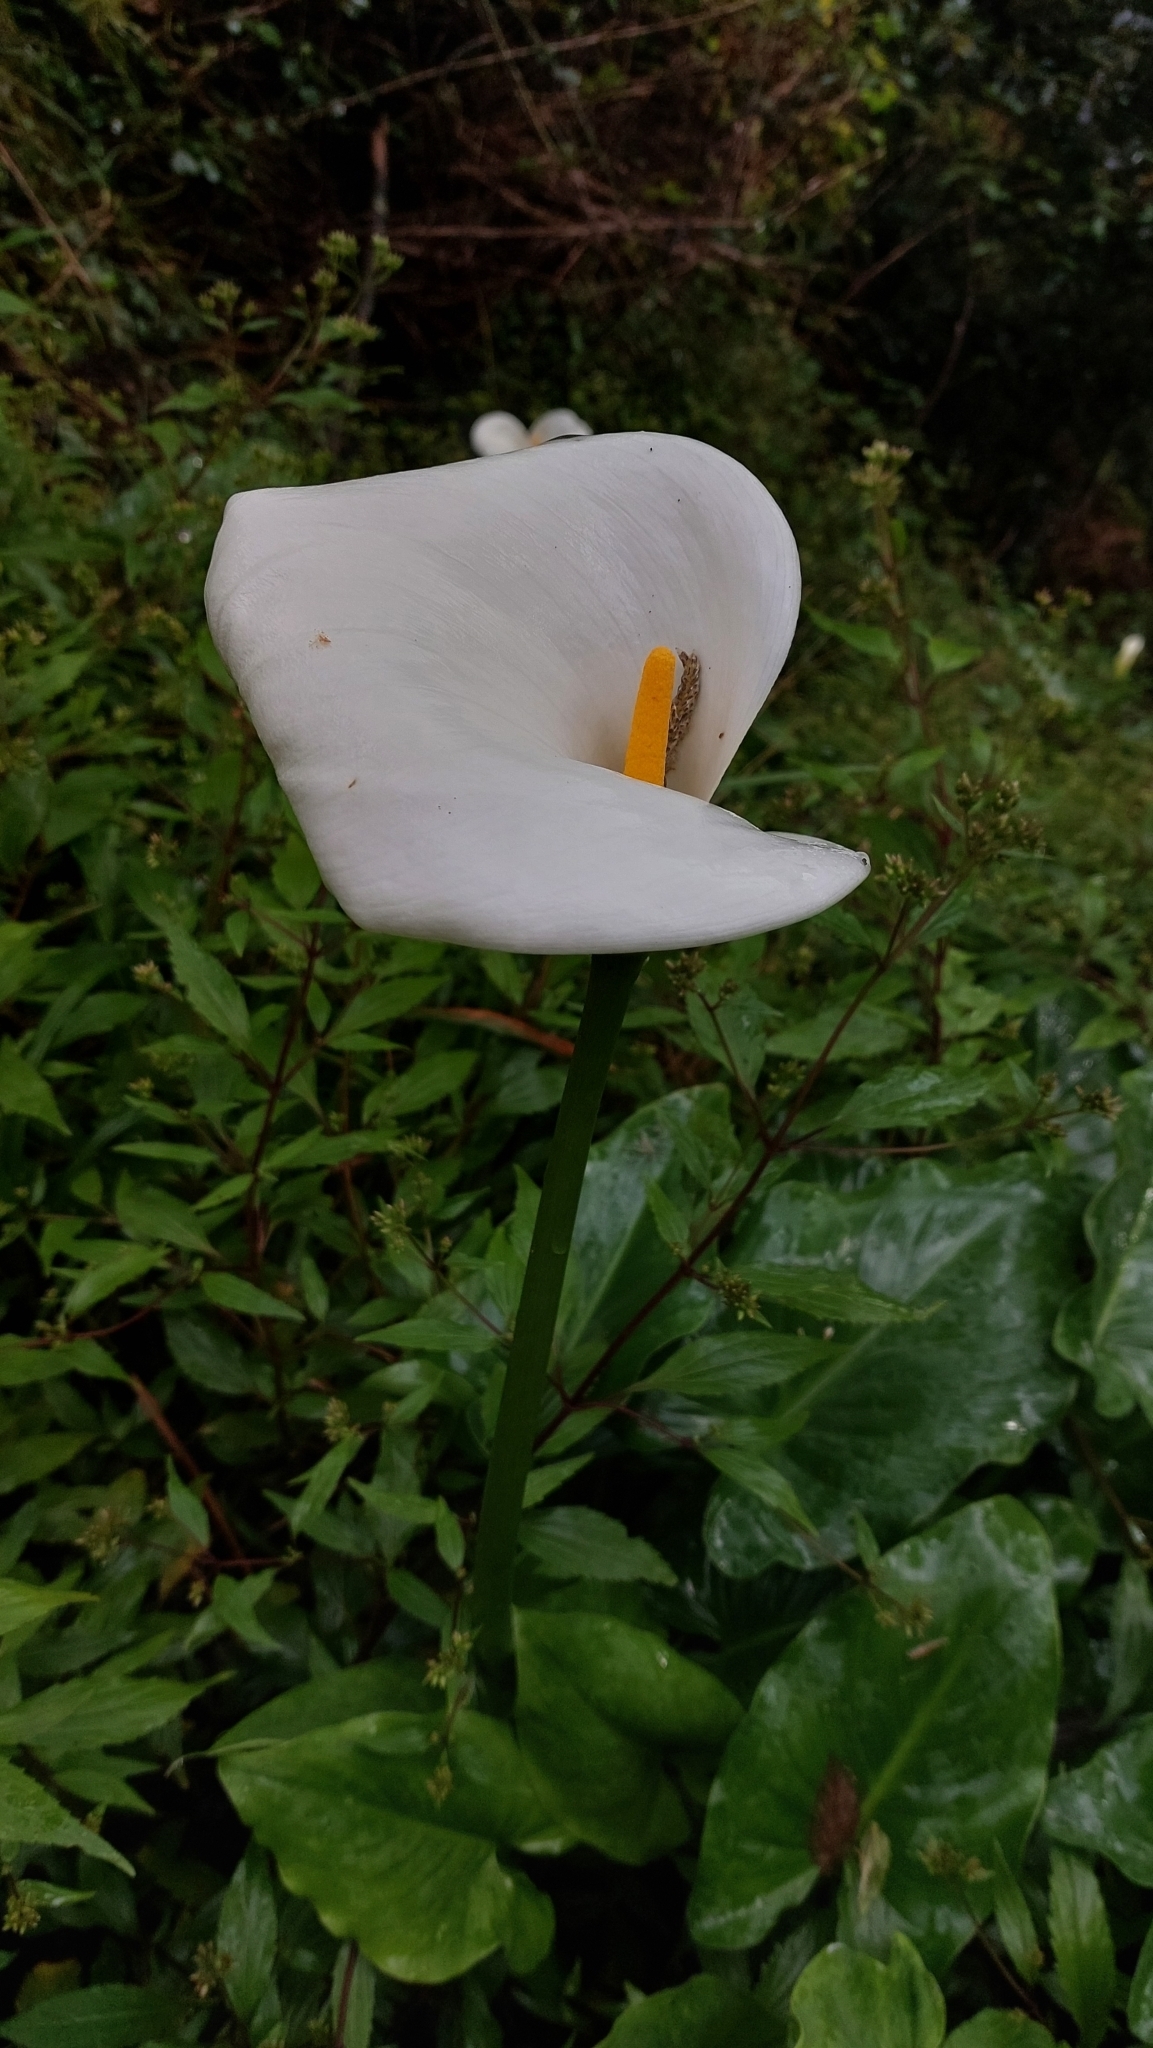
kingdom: Plantae
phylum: Tracheophyta
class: Liliopsida
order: Alismatales
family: Araceae
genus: Zantedeschia
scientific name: Zantedeschia aethiopica
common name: Altar-lily
